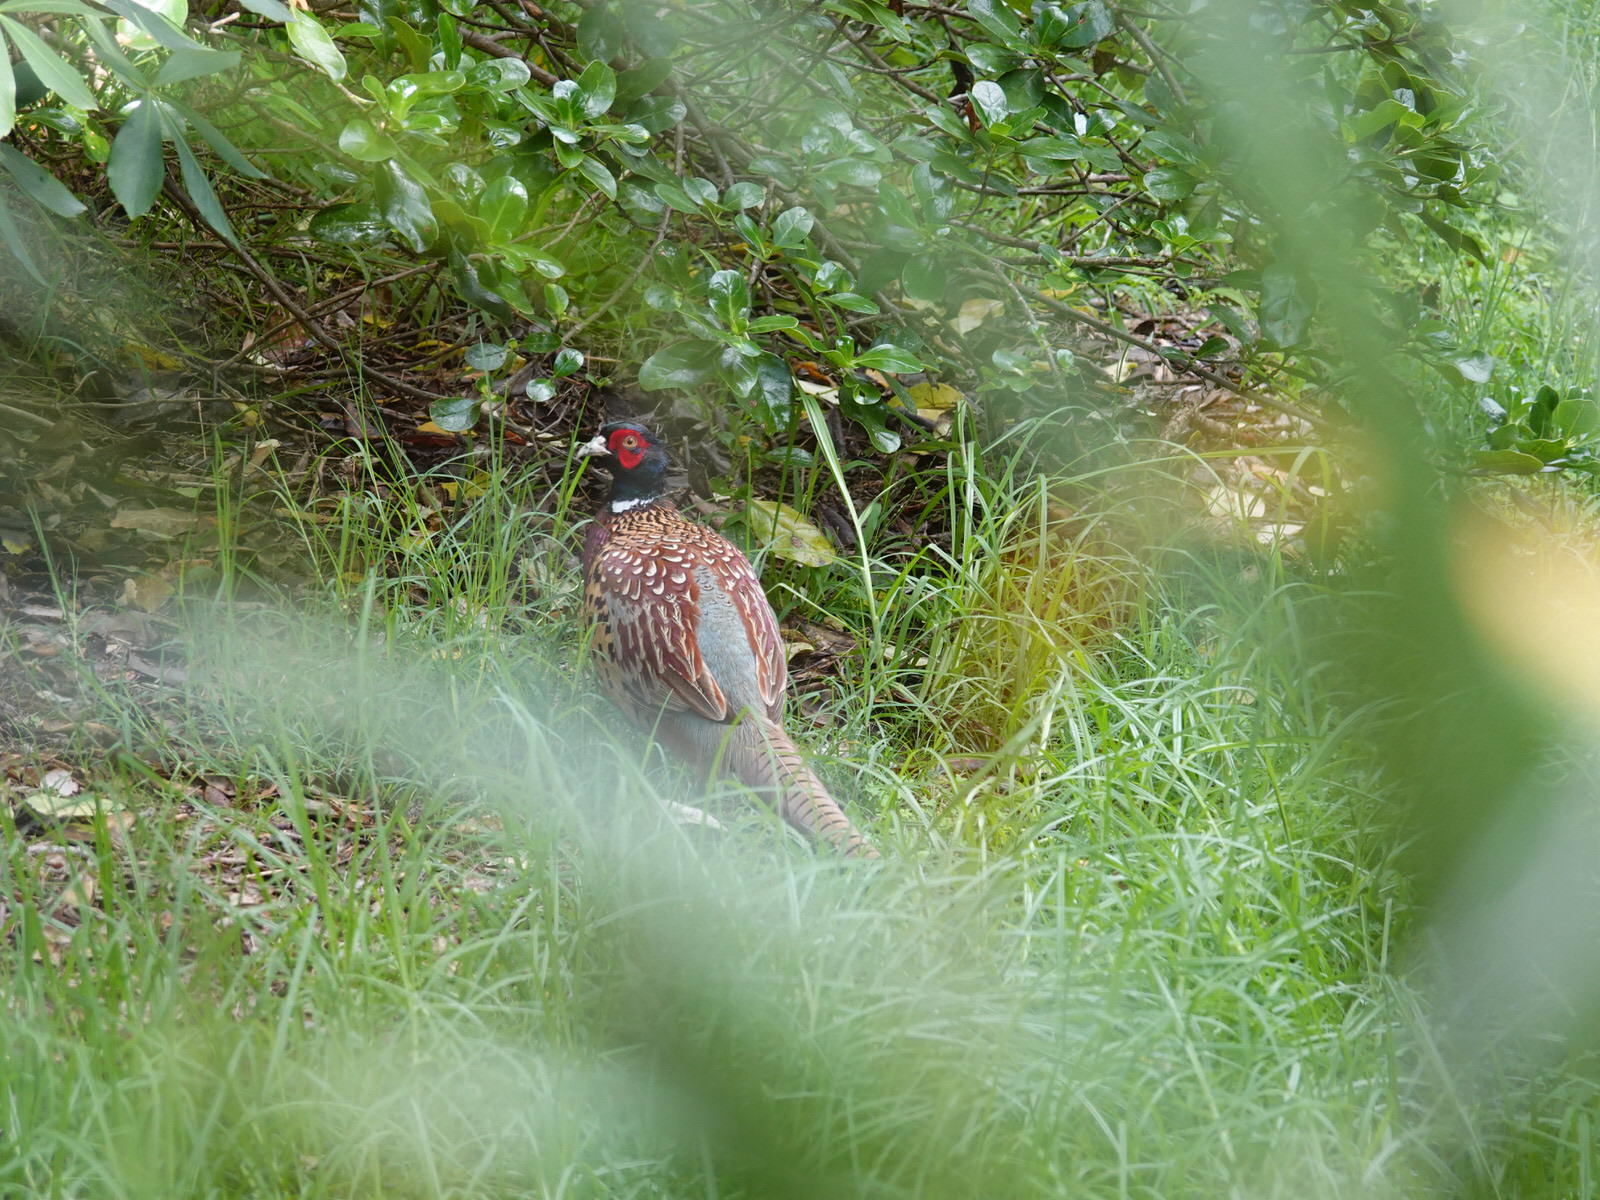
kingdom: Animalia
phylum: Chordata
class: Aves
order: Galliformes
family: Phasianidae
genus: Phasianus
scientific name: Phasianus colchicus
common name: Common pheasant
